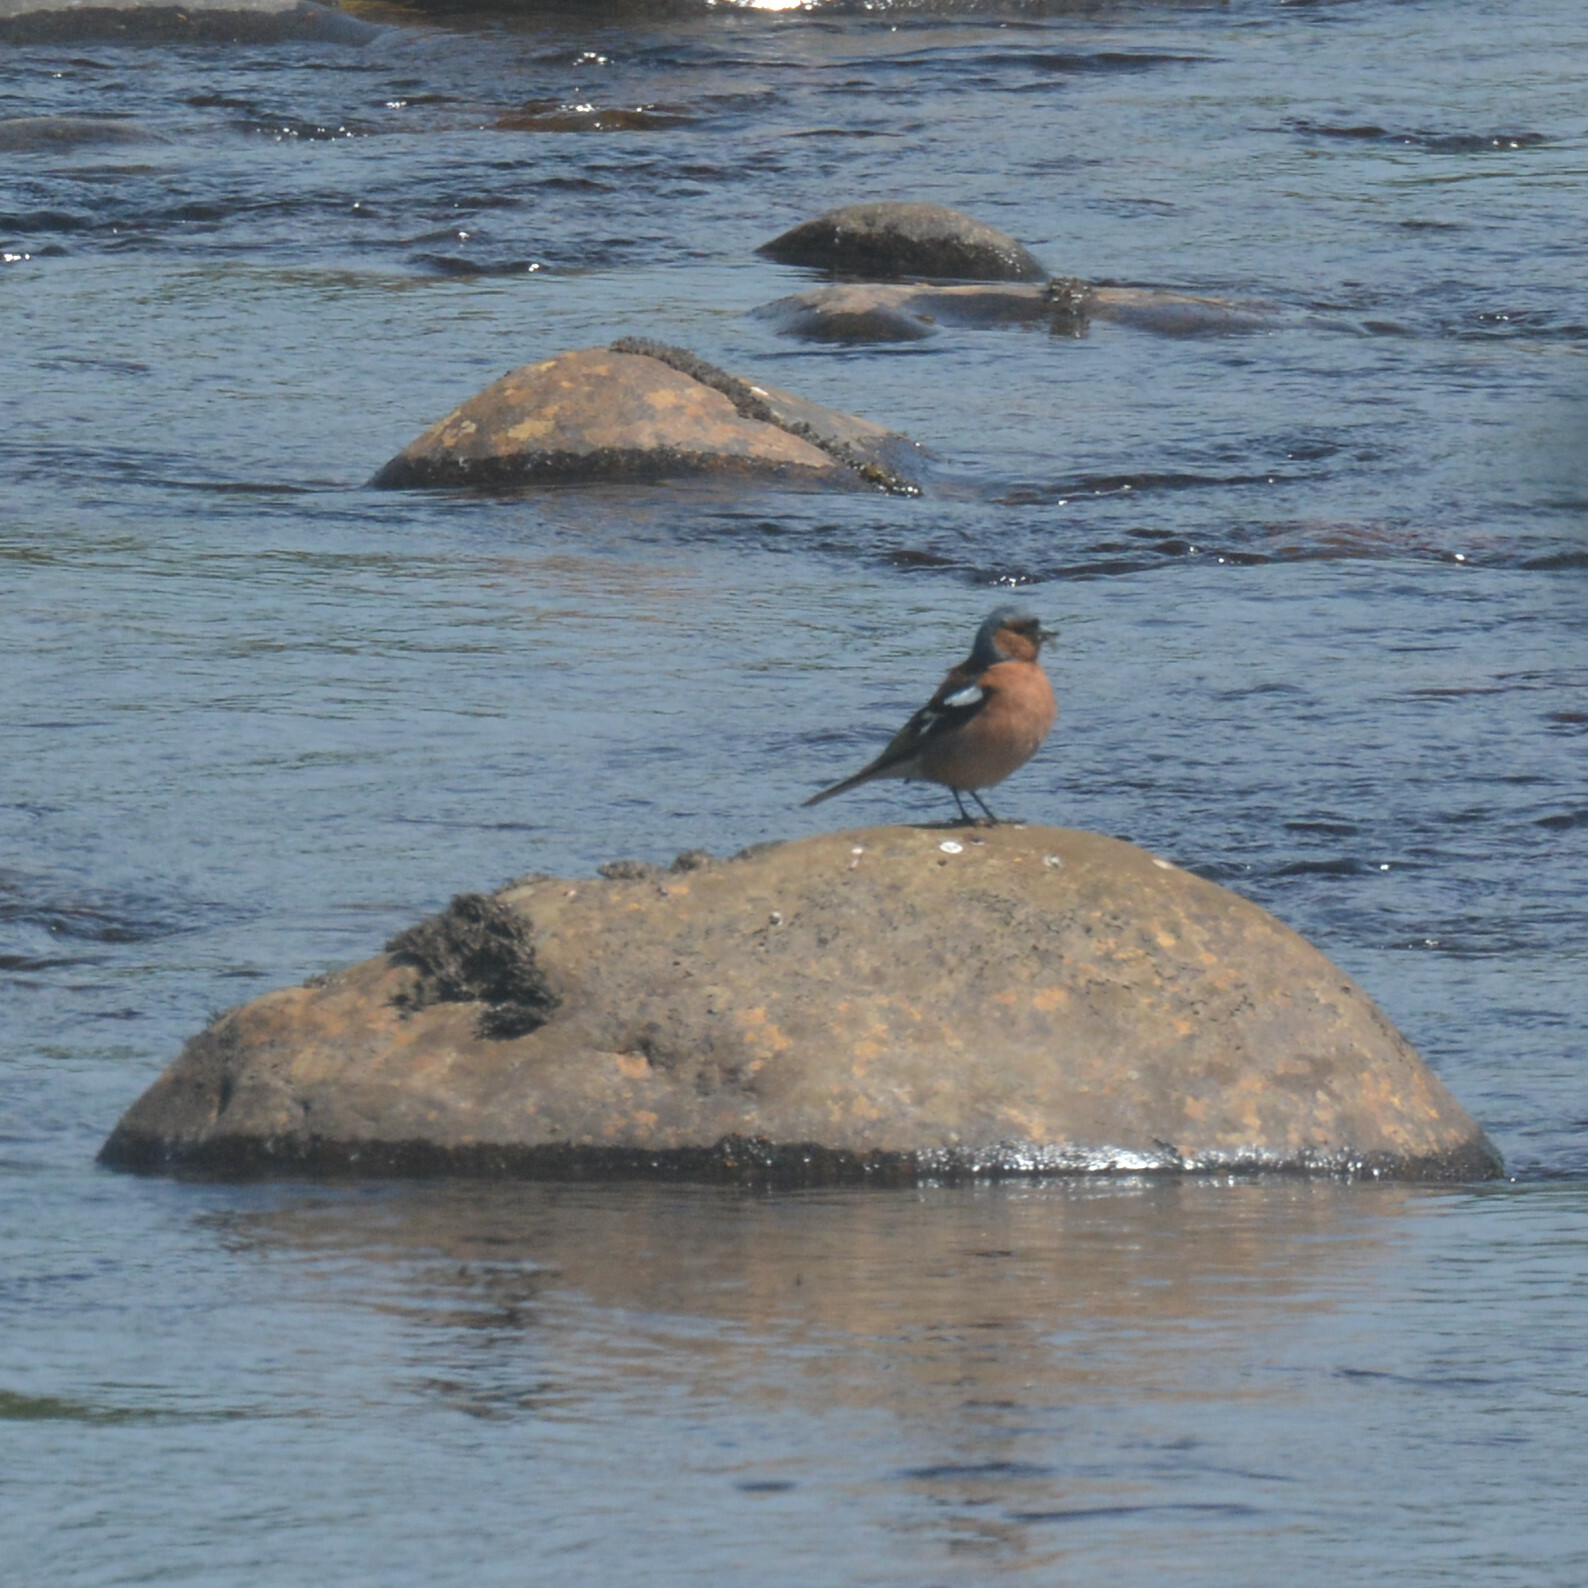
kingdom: Animalia
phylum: Chordata
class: Aves
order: Passeriformes
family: Fringillidae
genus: Fringilla
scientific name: Fringilla coelebs
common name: Common chaffinch
